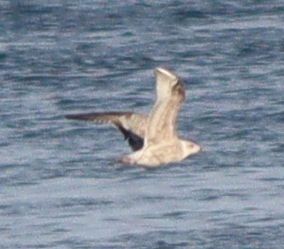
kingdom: Animalia
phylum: Chordata
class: Aves
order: Charadriiformes
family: Laridae
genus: Larus
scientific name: Larus argentatus
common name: Herring gull
